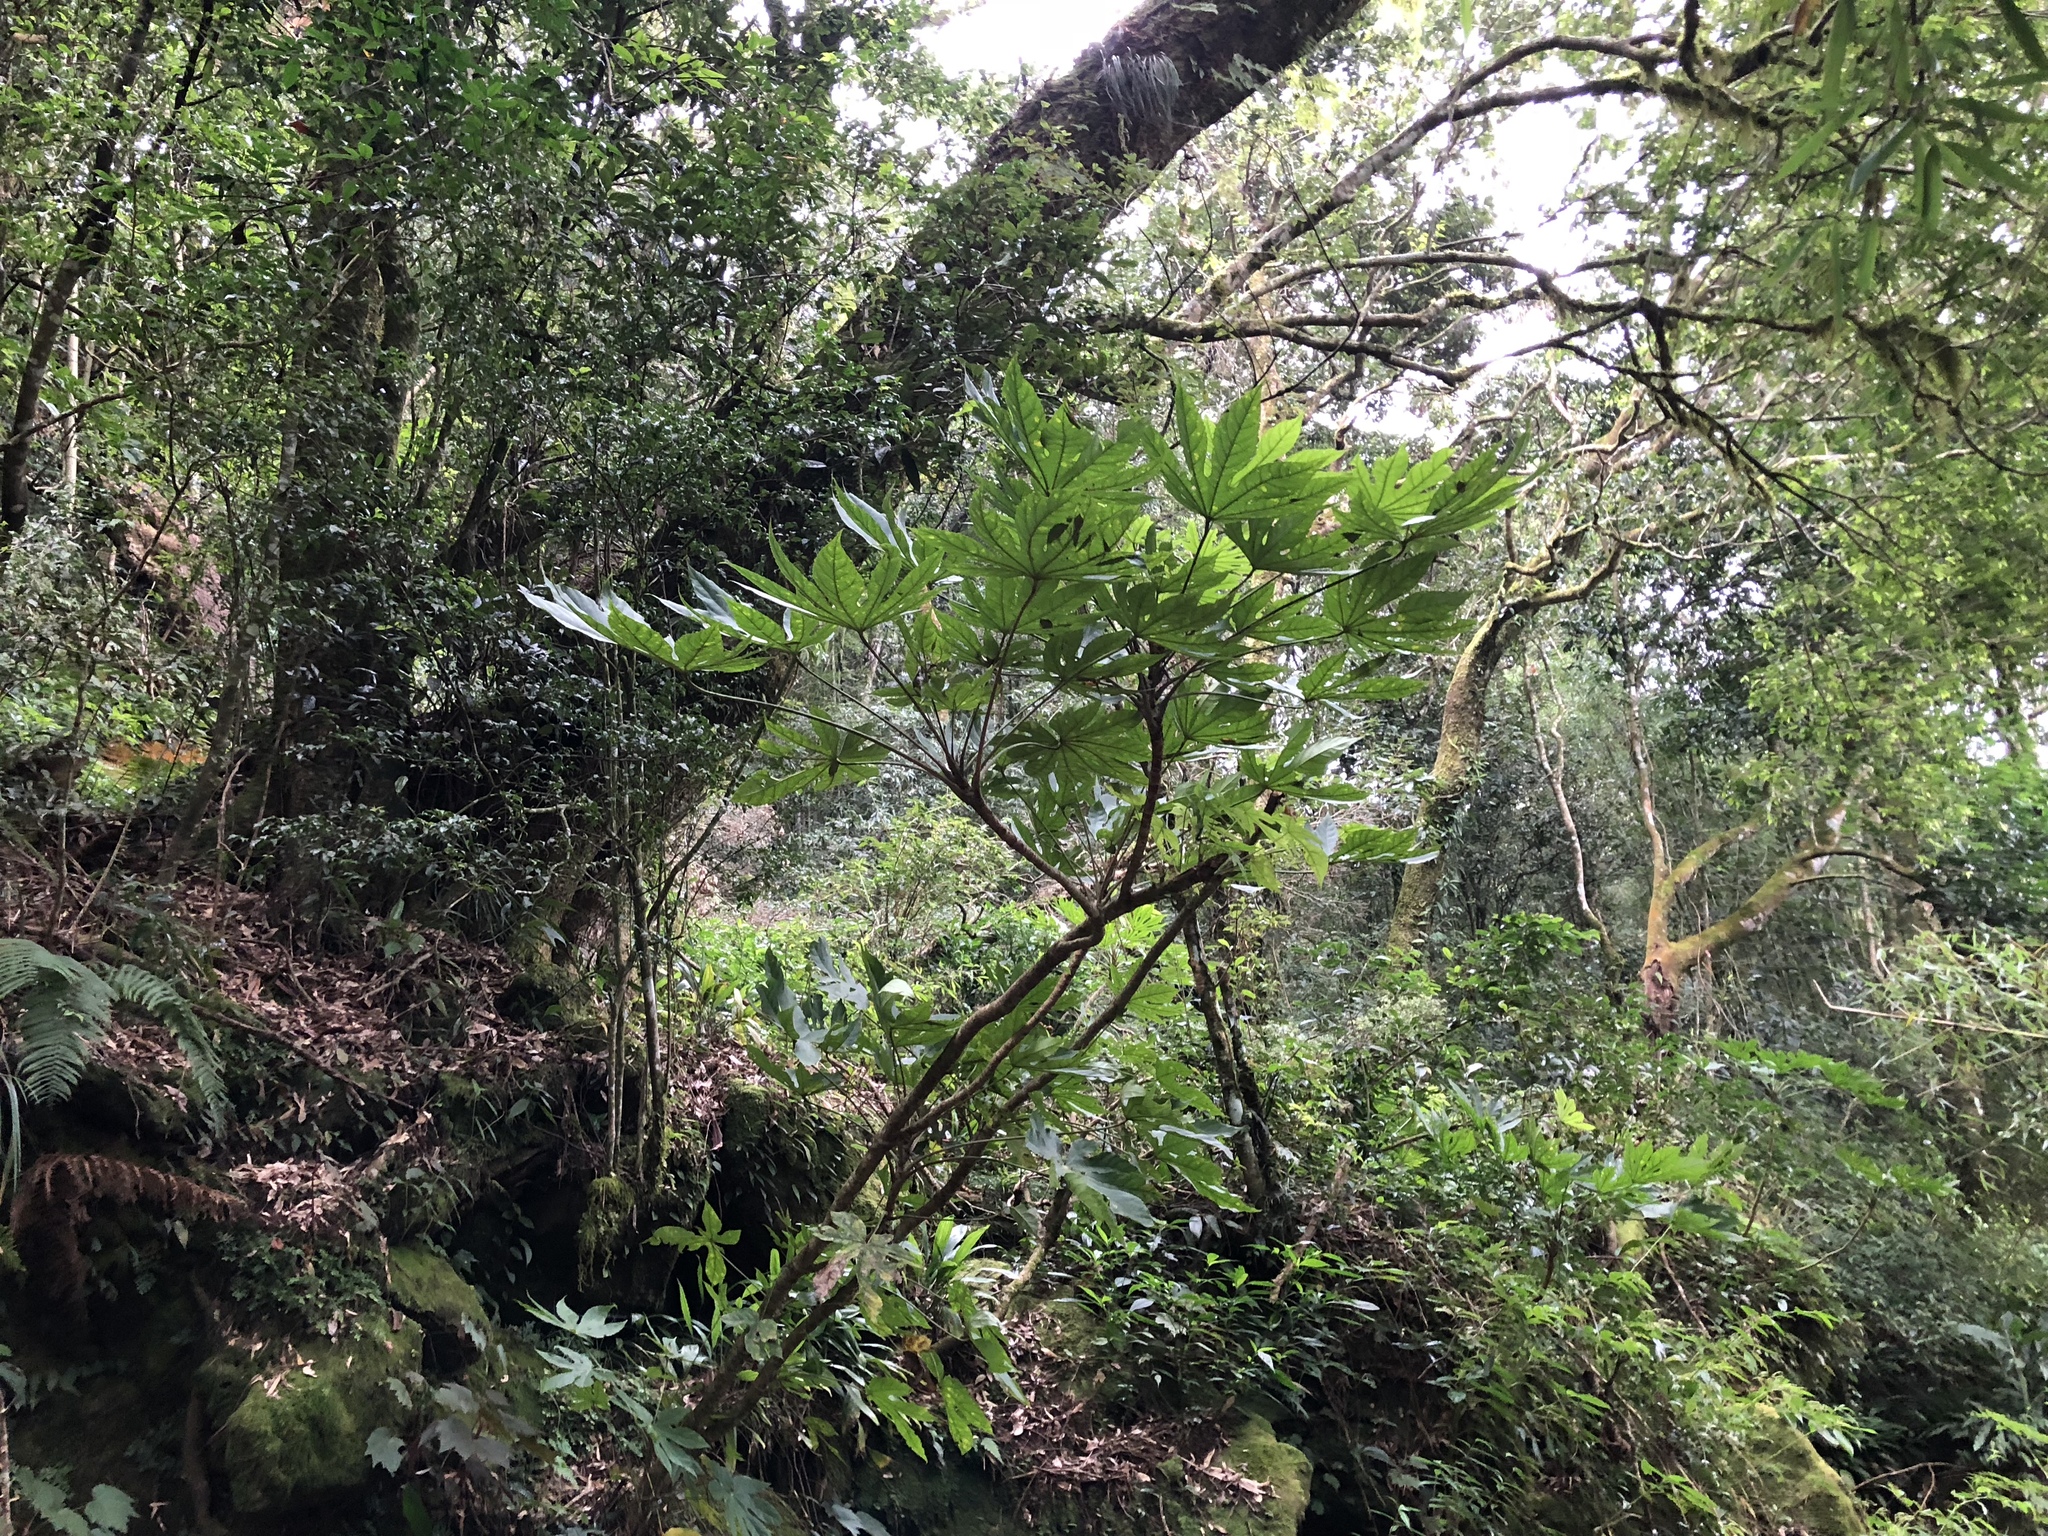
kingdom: Plantae
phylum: Tracheophyta
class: Magnoliopsida
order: Apiales
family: Araliaceae
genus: Fatsia
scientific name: Fatsia polycarpa
